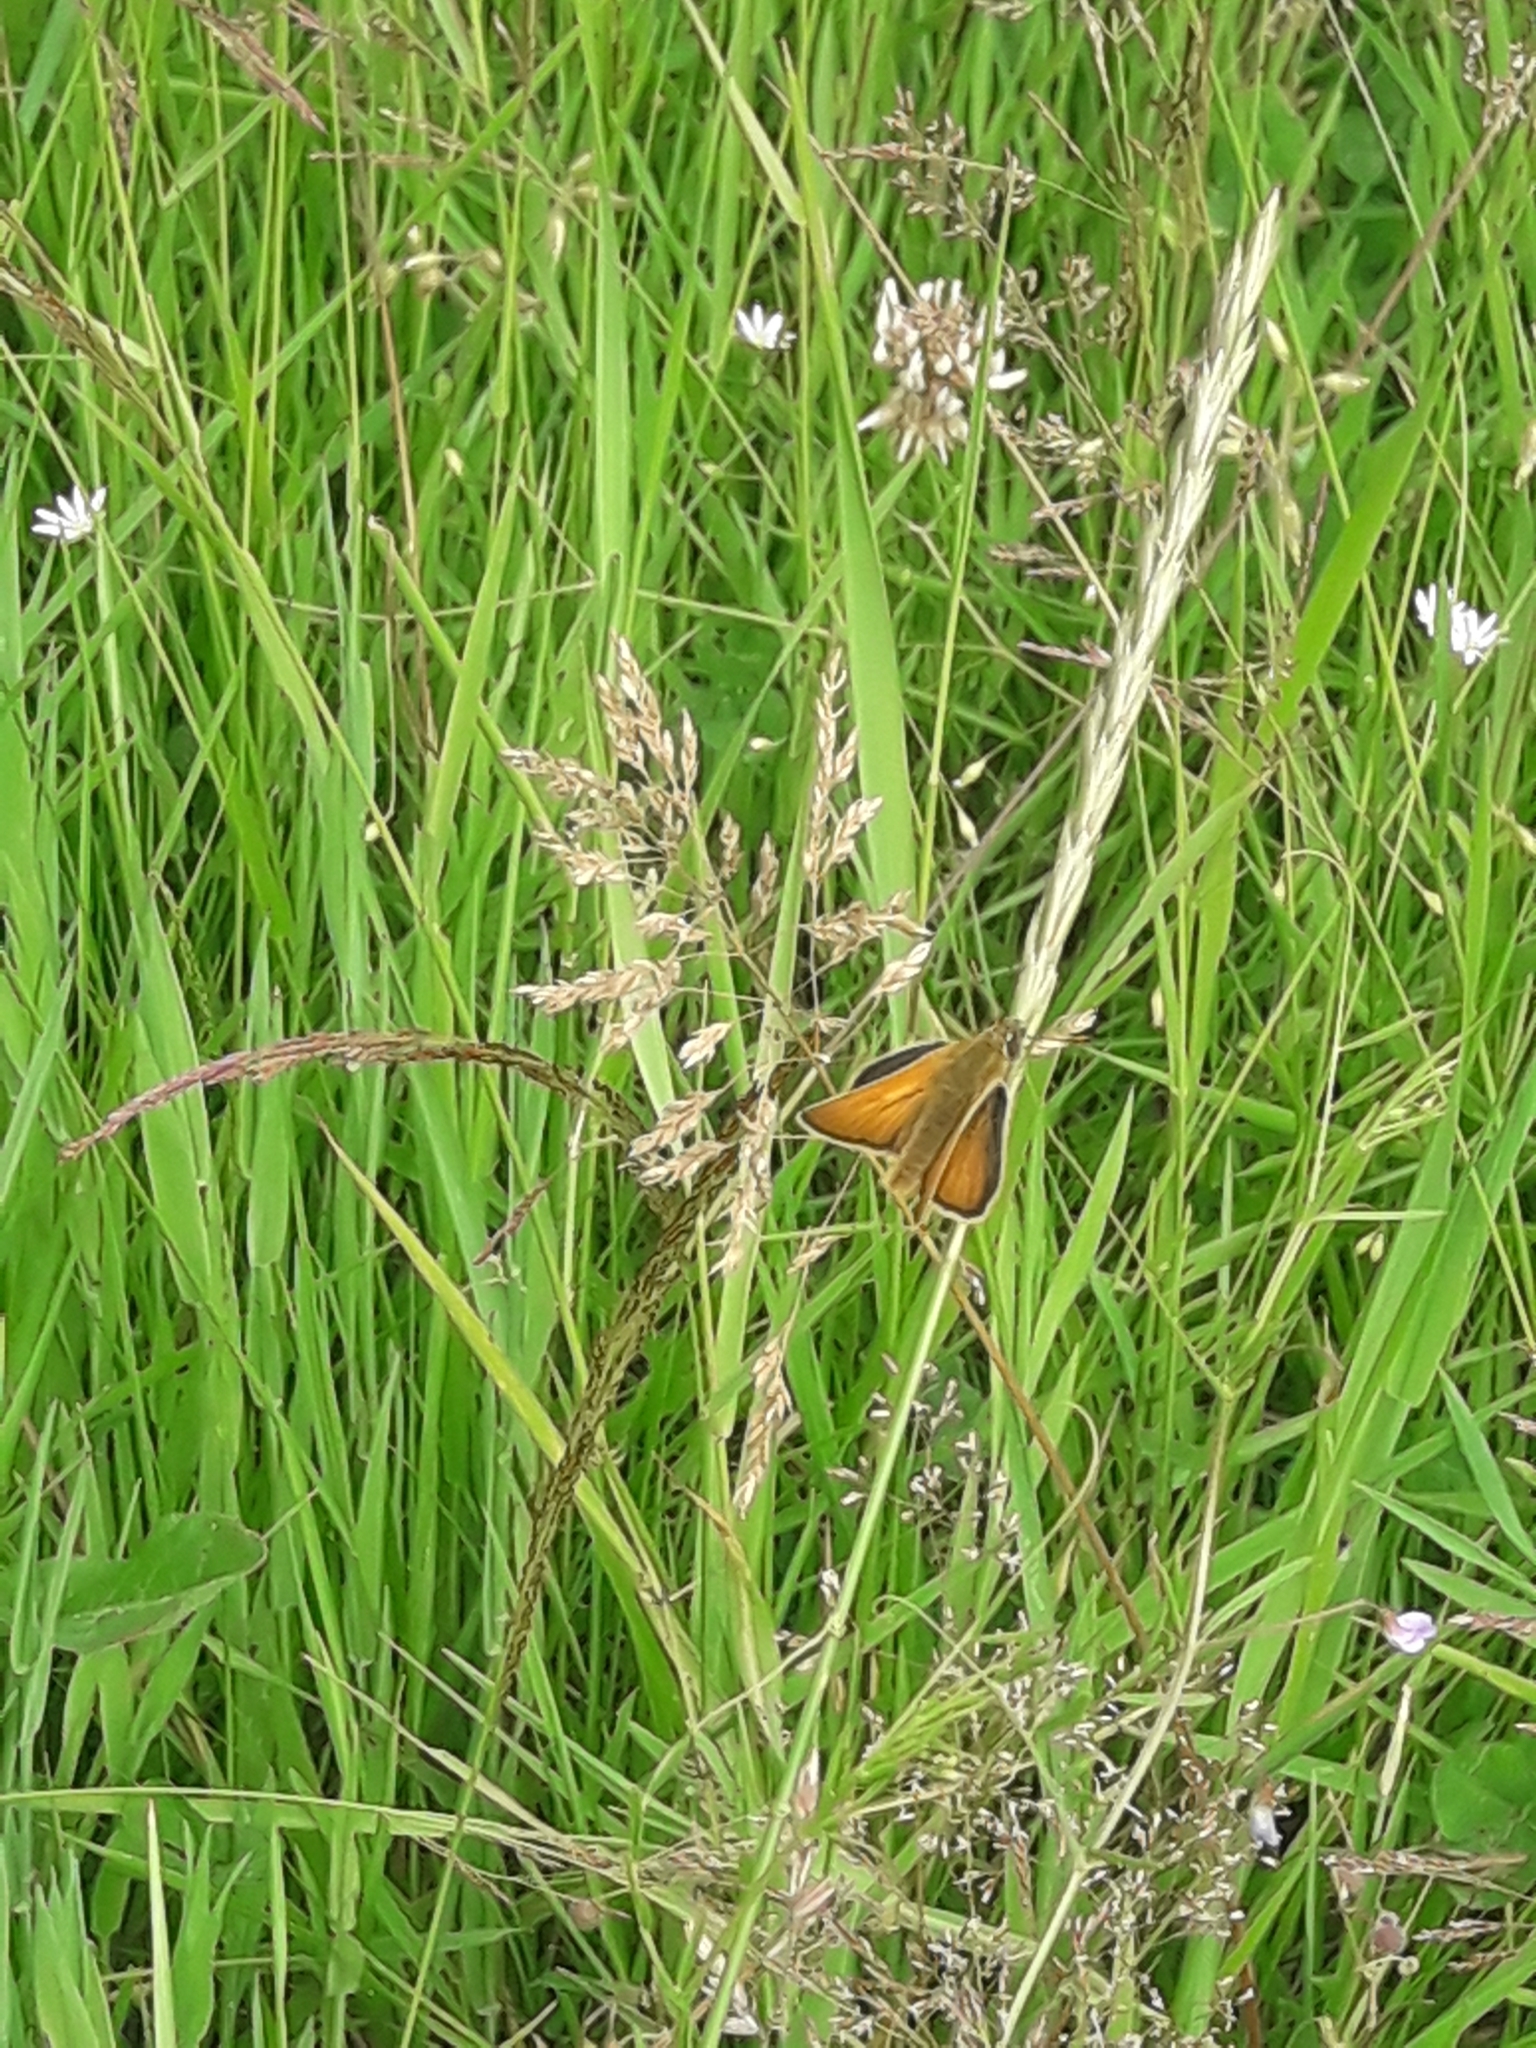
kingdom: Animalia
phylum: Arthropoda
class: Insecta
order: Lepidoptera
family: Hesperiidae
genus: Thymelicus
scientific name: Thymelicus sylvestris
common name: Small skipper
